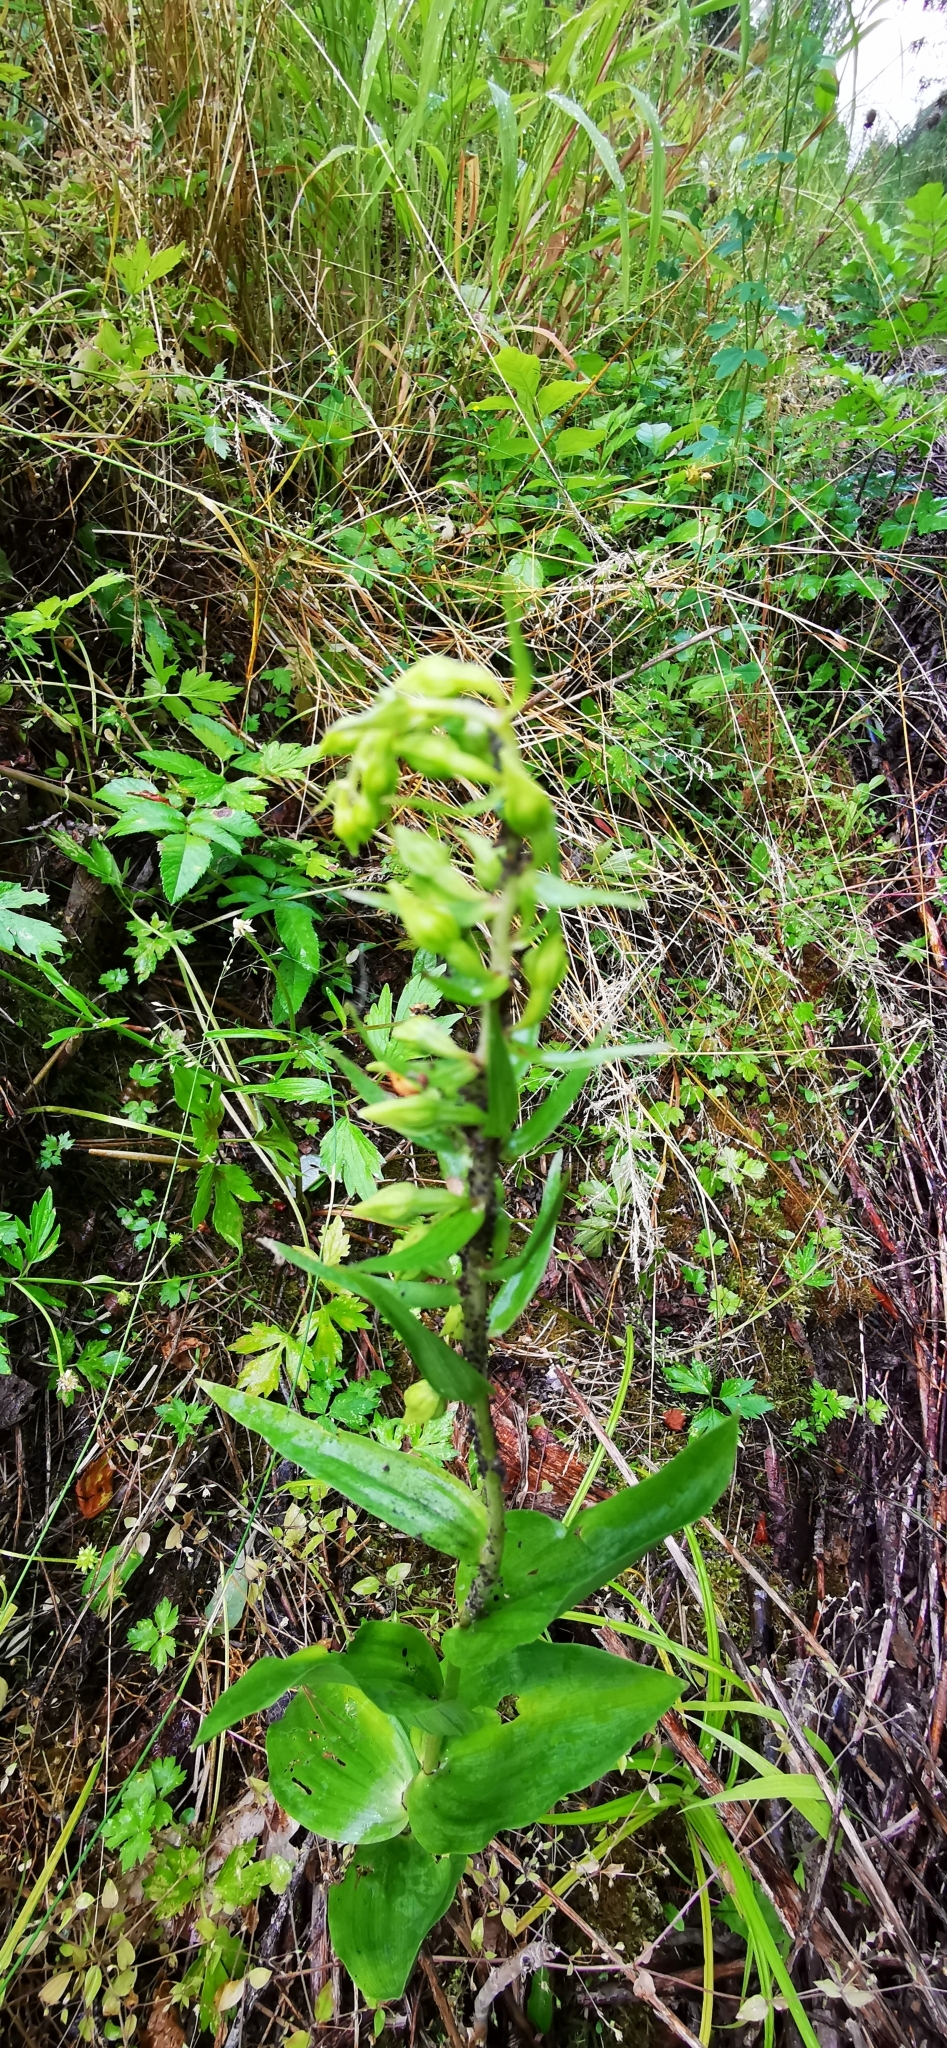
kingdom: Plantae
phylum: Tracheophyta
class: Liliopsida
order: Asparagales
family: Orchidaceae
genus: Epipactis
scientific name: Epipactis helleborine
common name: Broad-leaved helleborine
